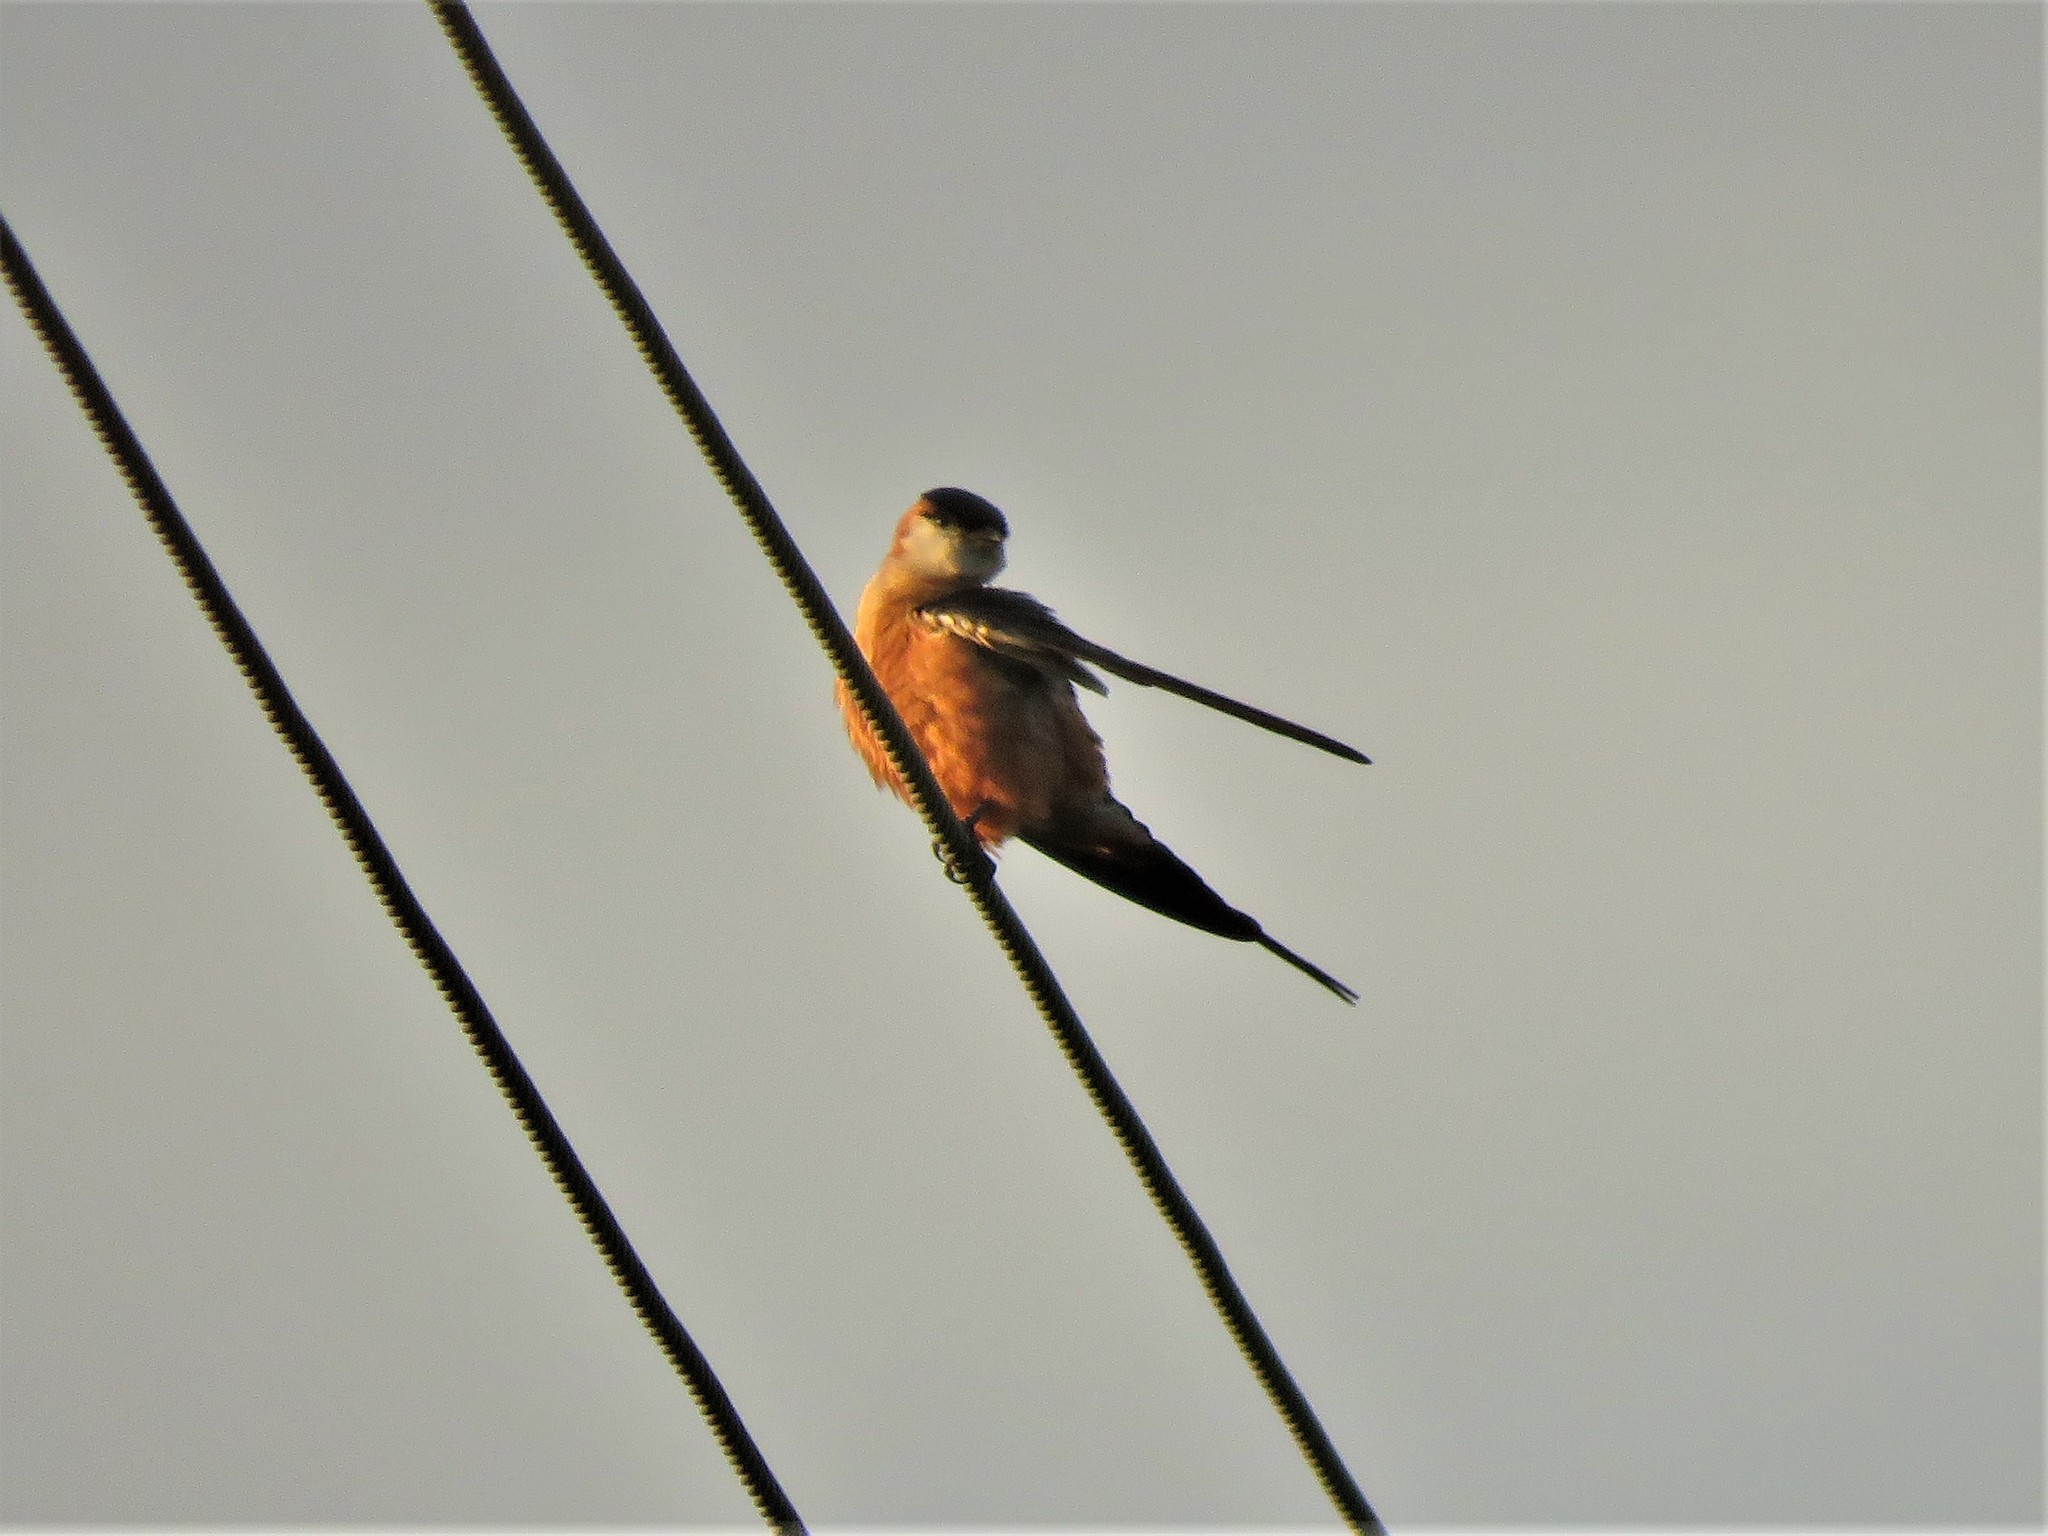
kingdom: Animalia
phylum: Chordata
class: Aves
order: Passeriformes
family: Hirundinidae
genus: Cecropis
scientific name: Cecropis senegalensis
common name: Mosque swallow
